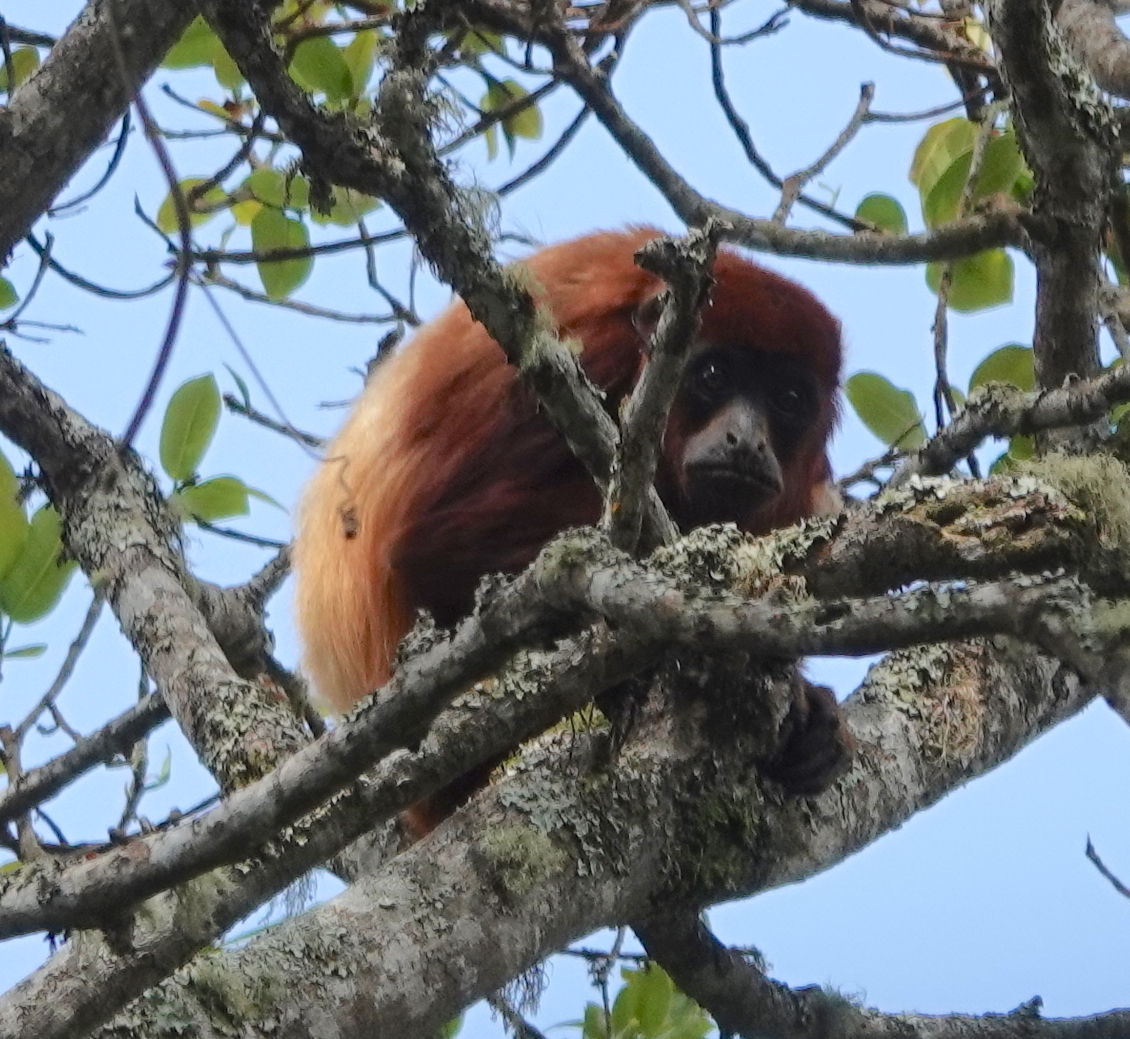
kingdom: Animalia
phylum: Chordata
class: Mammalia
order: Primates
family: Atelidae
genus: Alouatta
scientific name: Alouatta seniculus
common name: Venezuelan red howler
